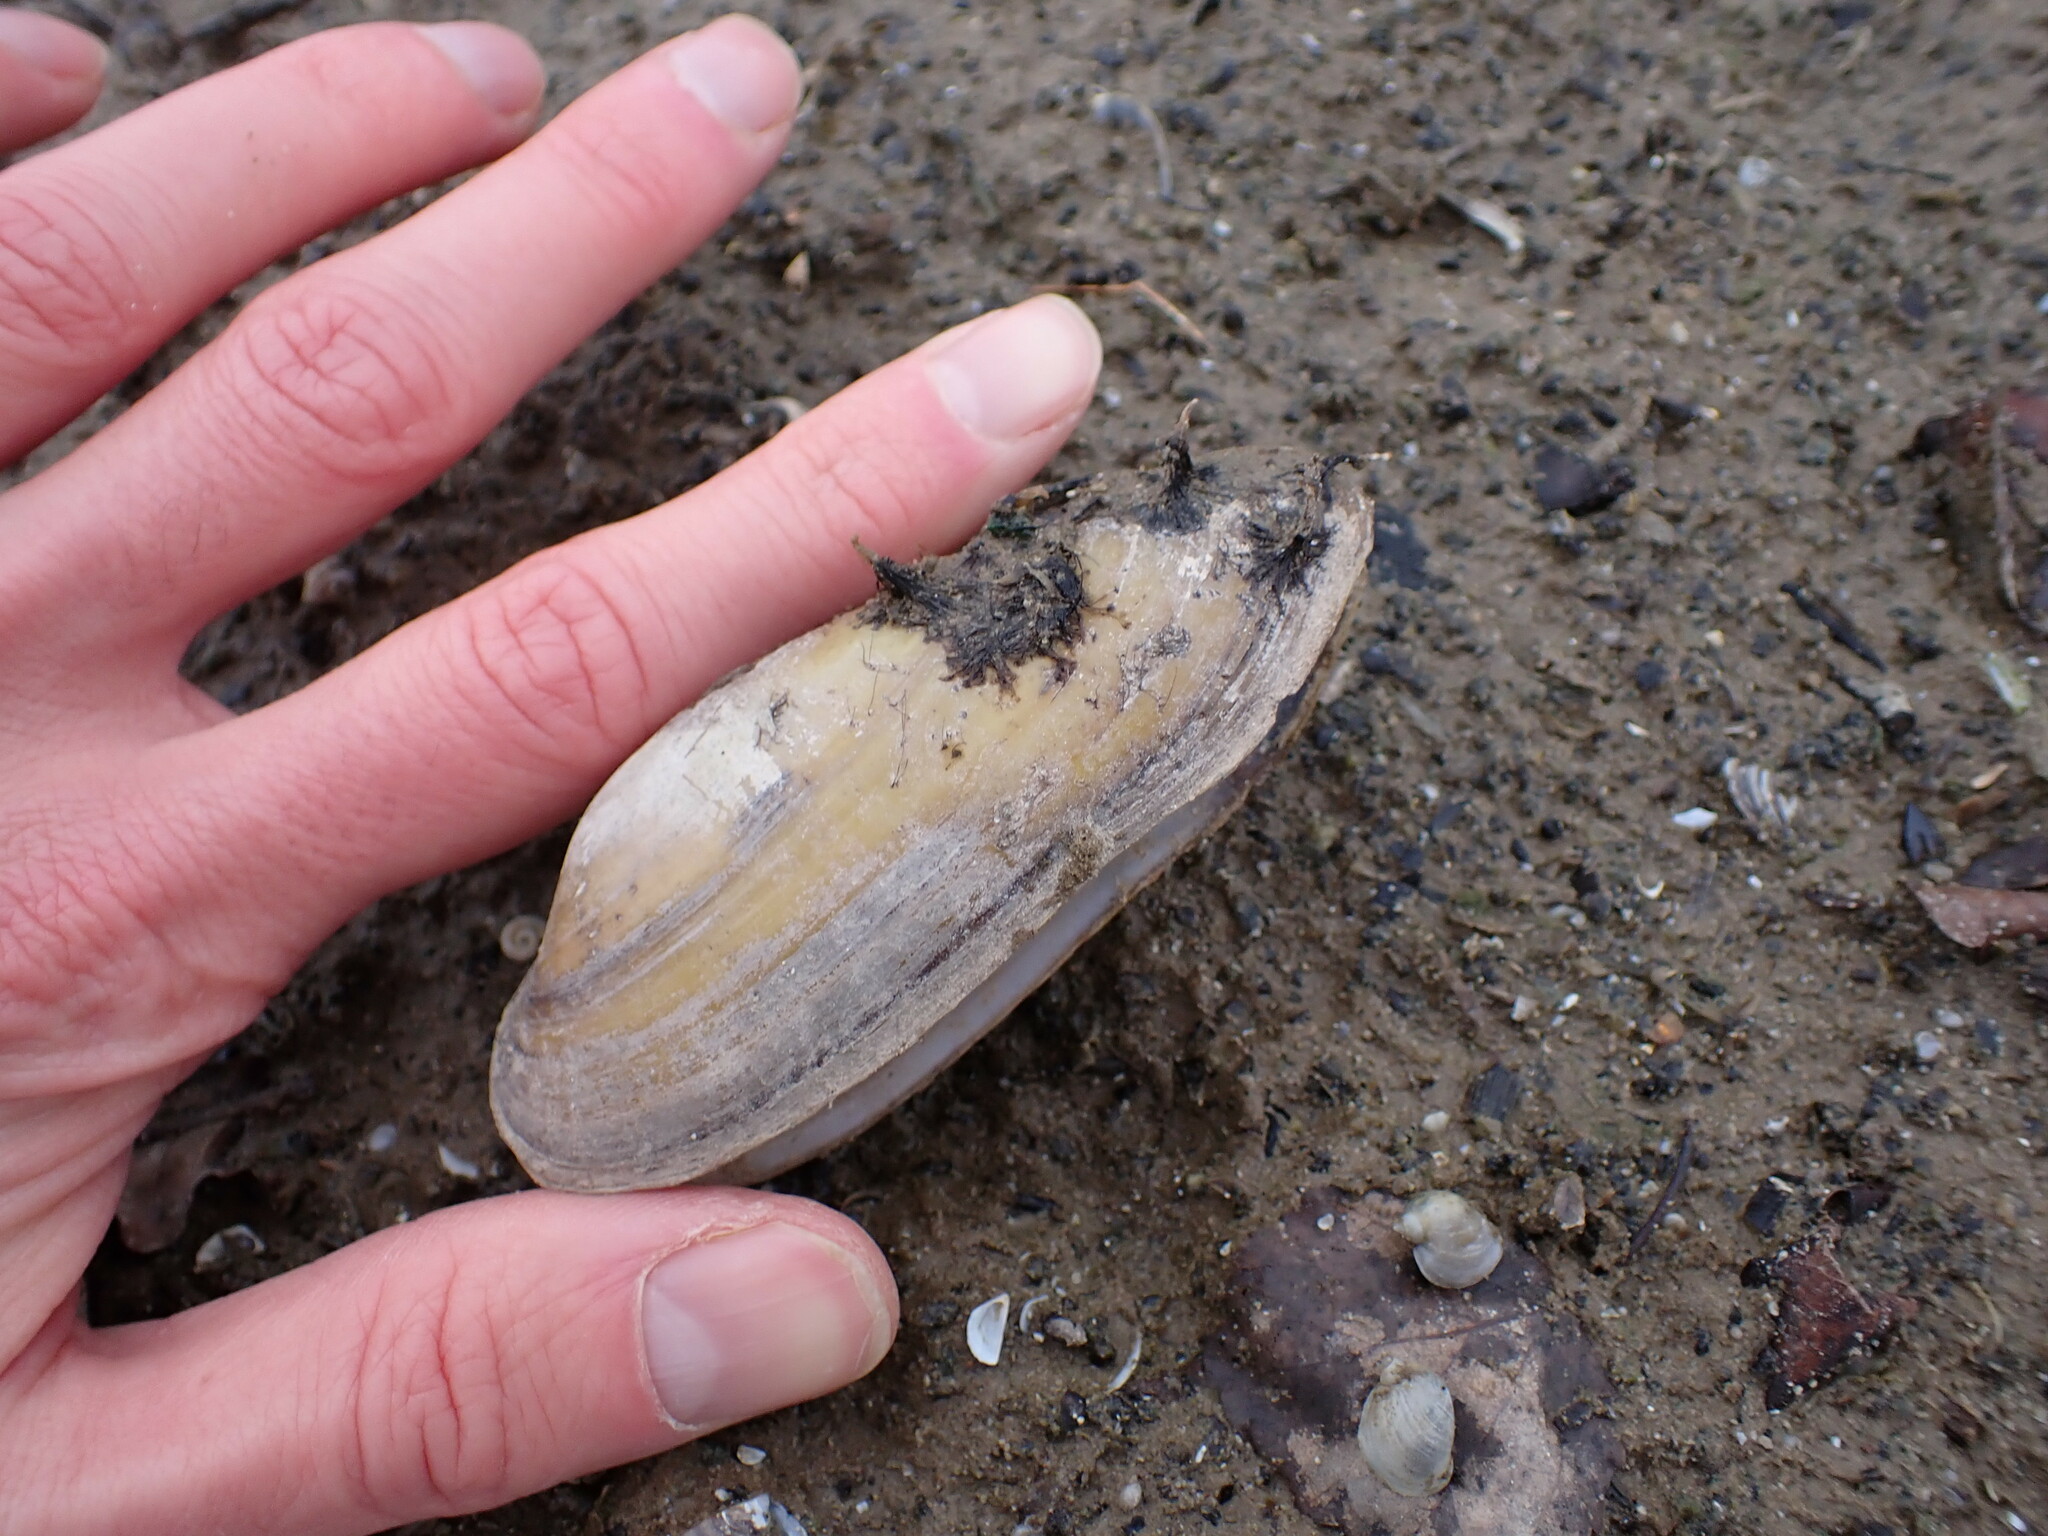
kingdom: Animalia
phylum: Mollusca
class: Bivalvia
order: Unionida
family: Unionidae
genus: Unio
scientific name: Unio pictorum
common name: Painter's mussel
